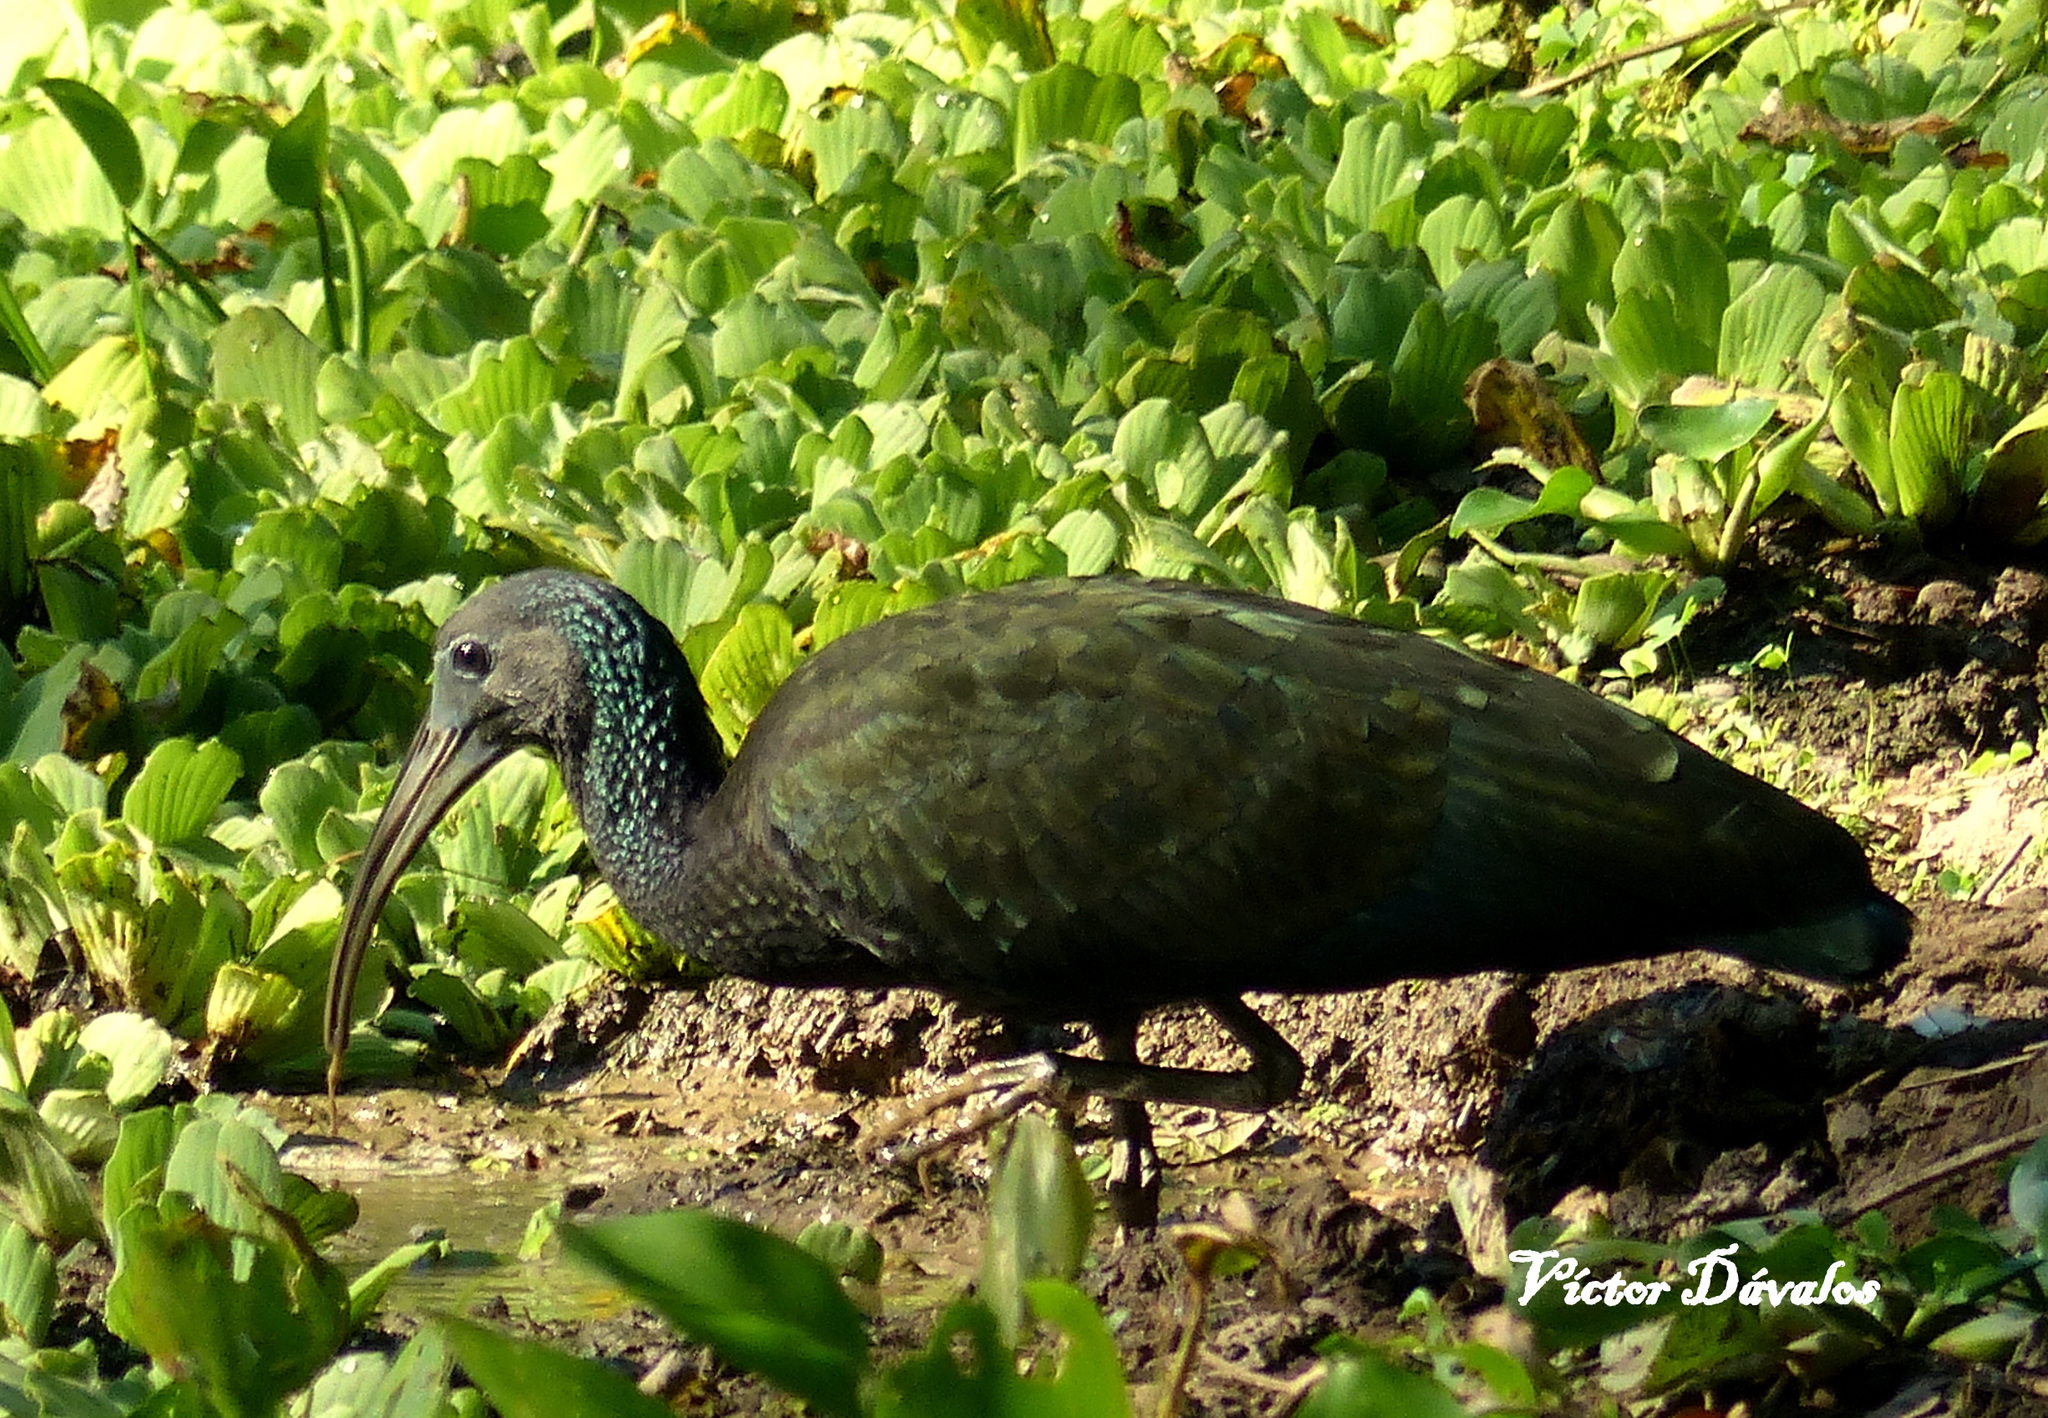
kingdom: Animalia
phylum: Chordata
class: Aves
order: Pelecaniformes
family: Threskiornithidae
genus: Mesembrinibis
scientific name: Mesembrinibis cayennensis
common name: Green ibis
